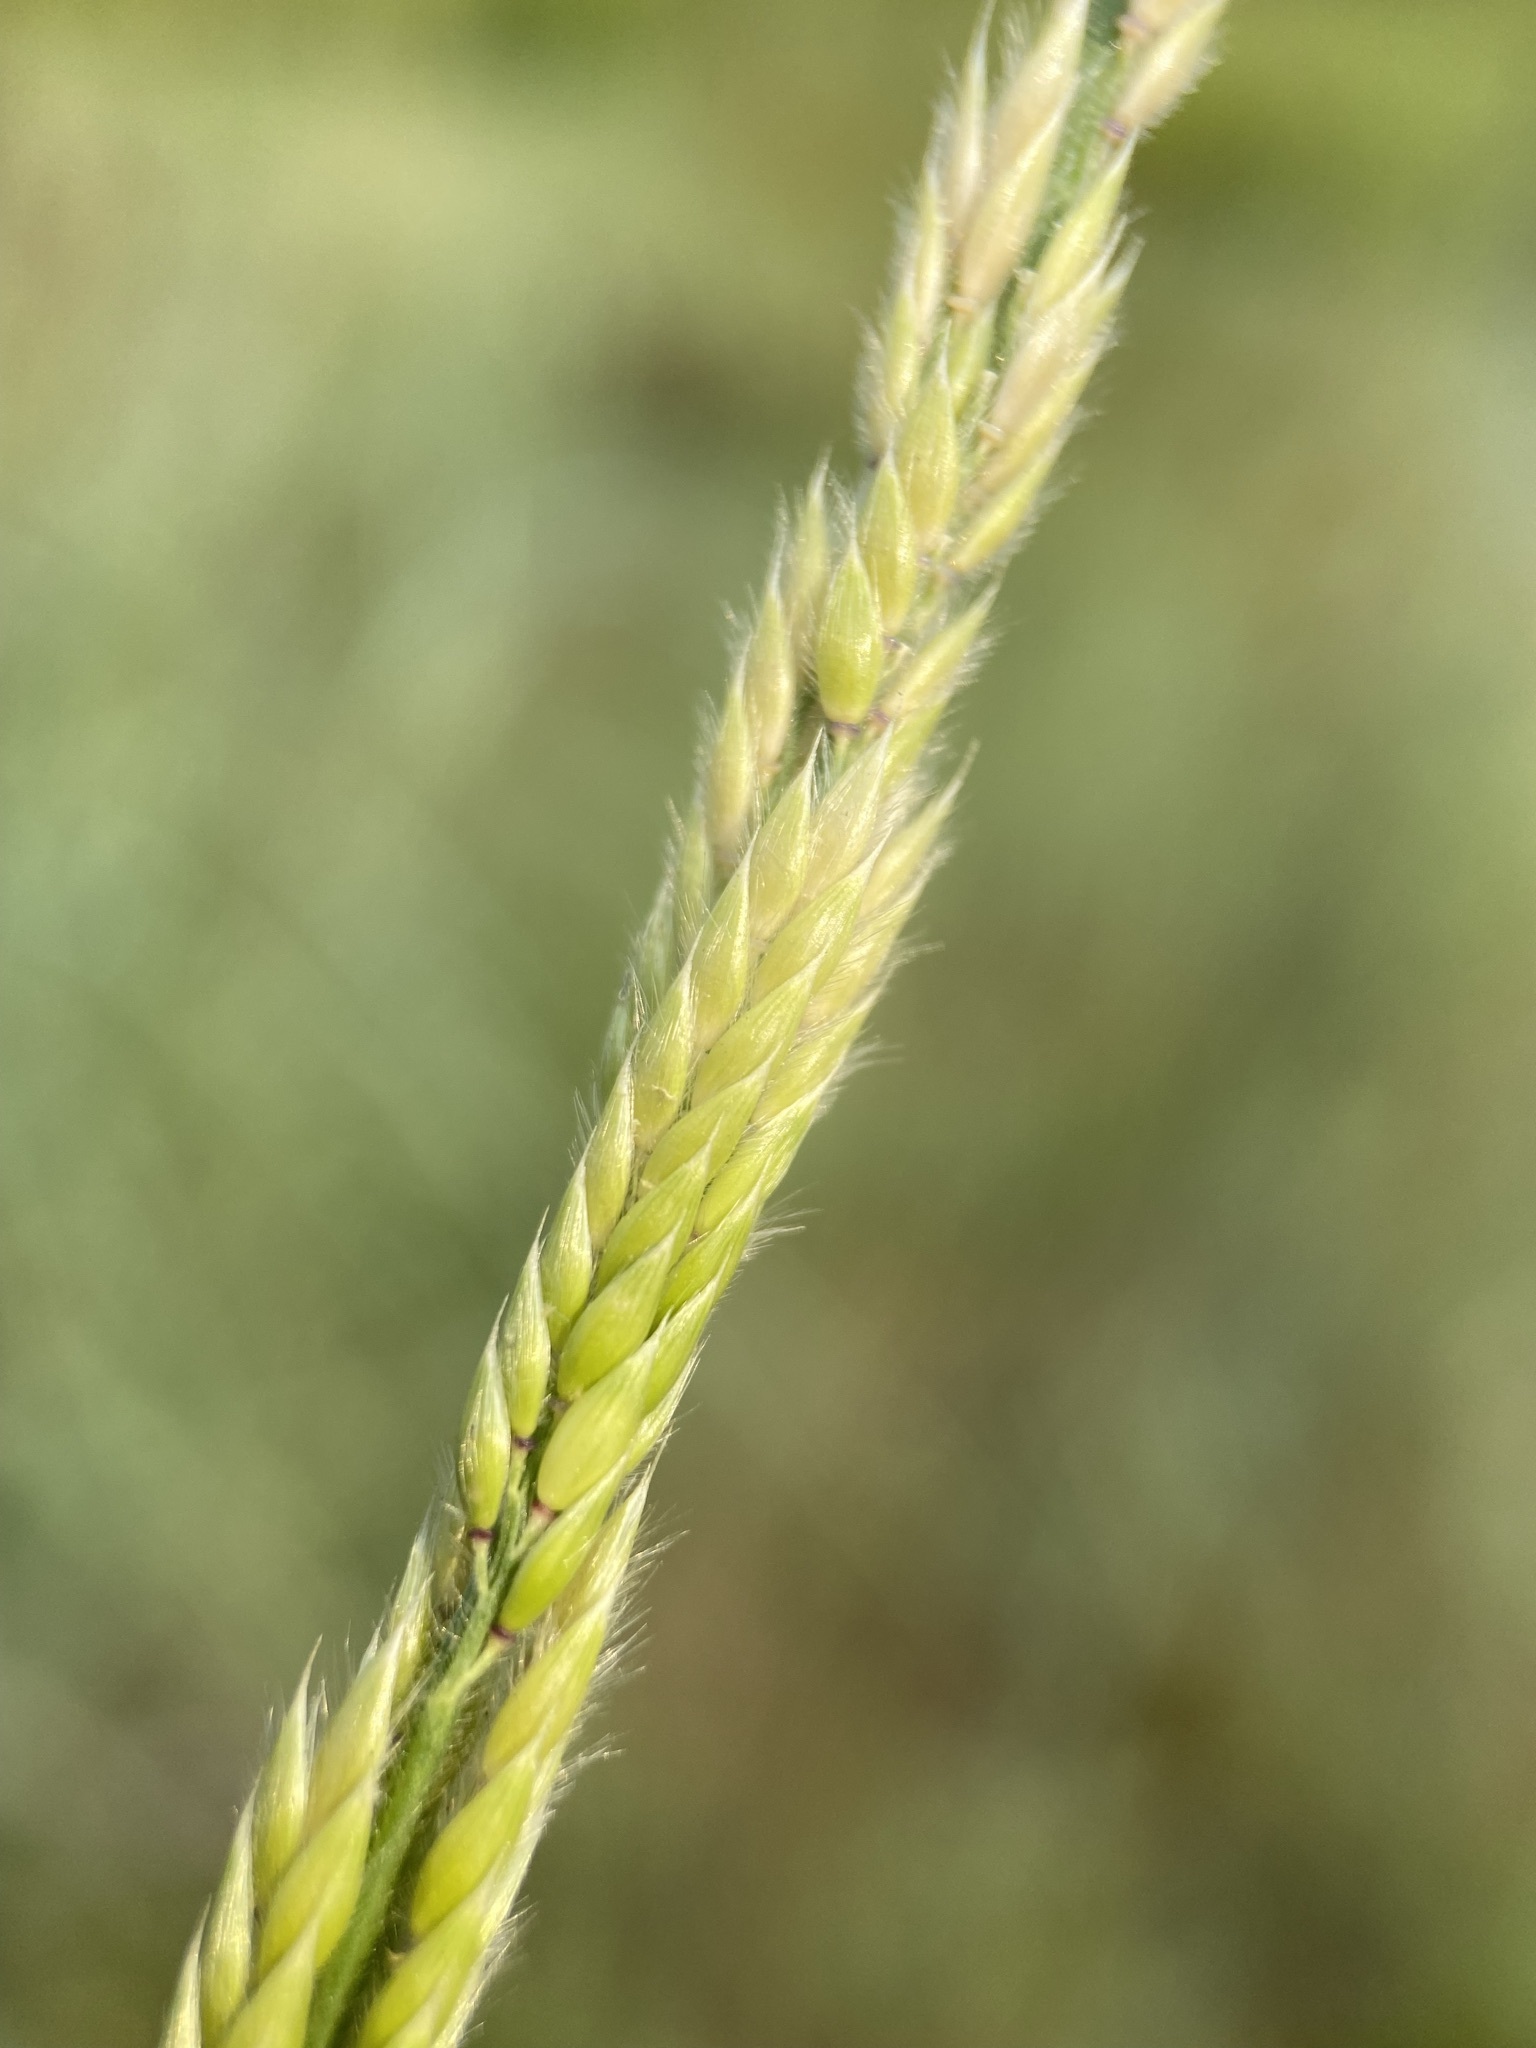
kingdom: Plantae
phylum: Tracheophyta
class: Liliopsida
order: Poales
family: Poaceae
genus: Eriochloa
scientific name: Eriochloa contracta
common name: Prairie cup grass
